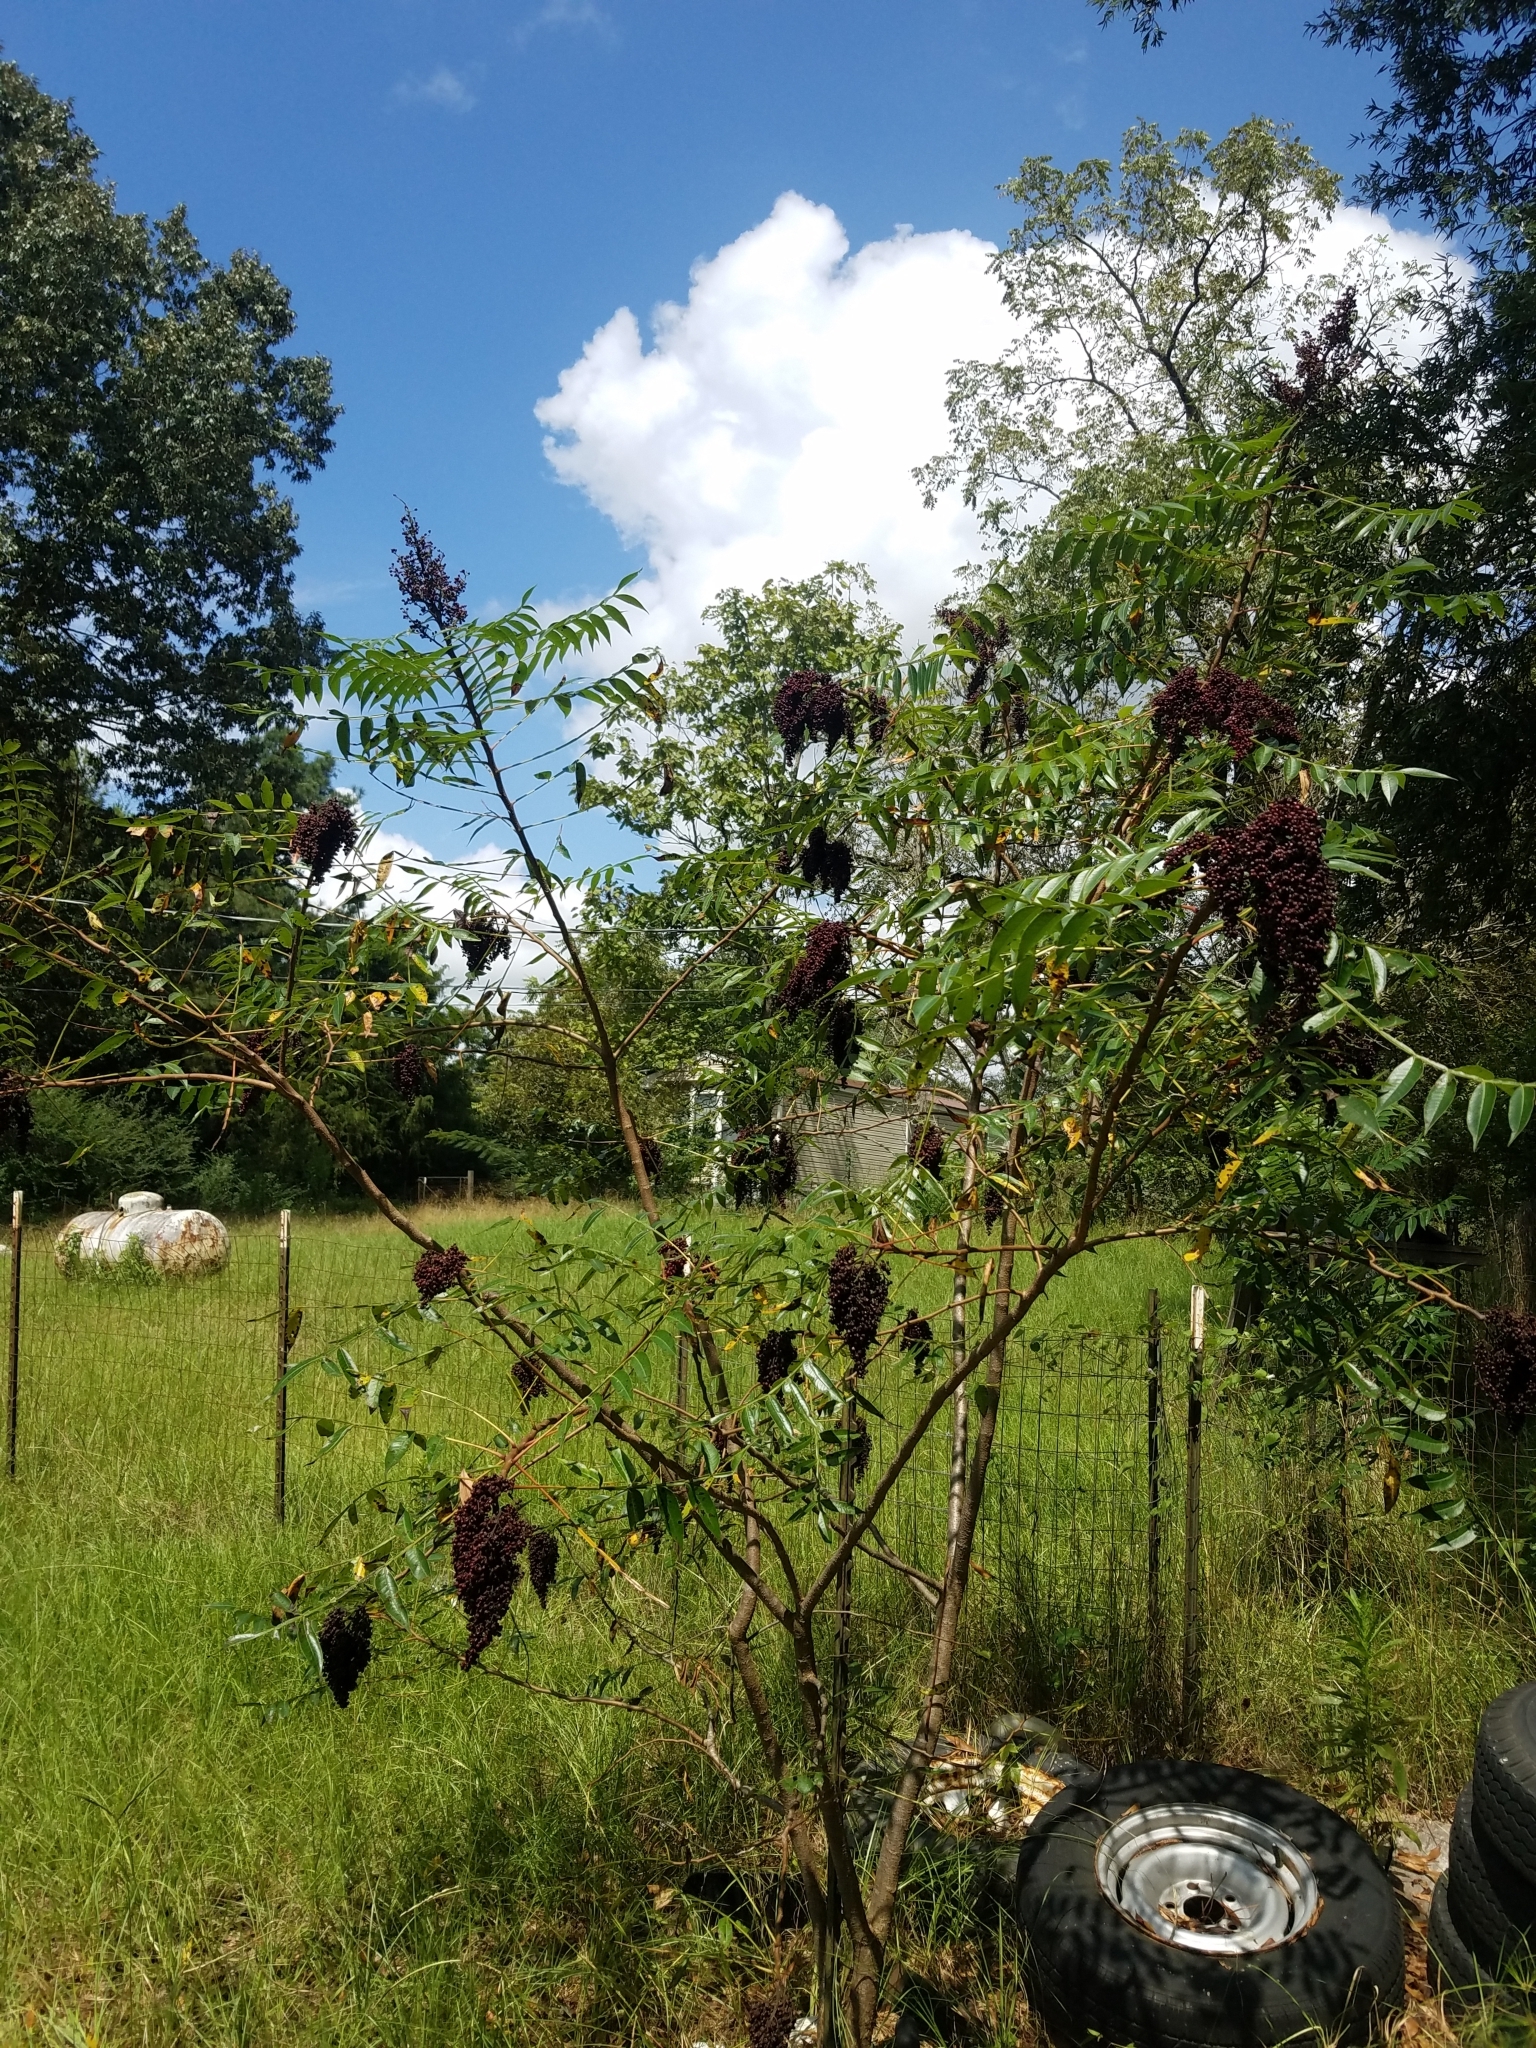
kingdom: Plantae
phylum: Tracheophyta
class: Magnoliopsida
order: Sapindales
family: Anacardiaceae
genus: Rhus
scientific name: Rhus copallina
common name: Shining sumac
